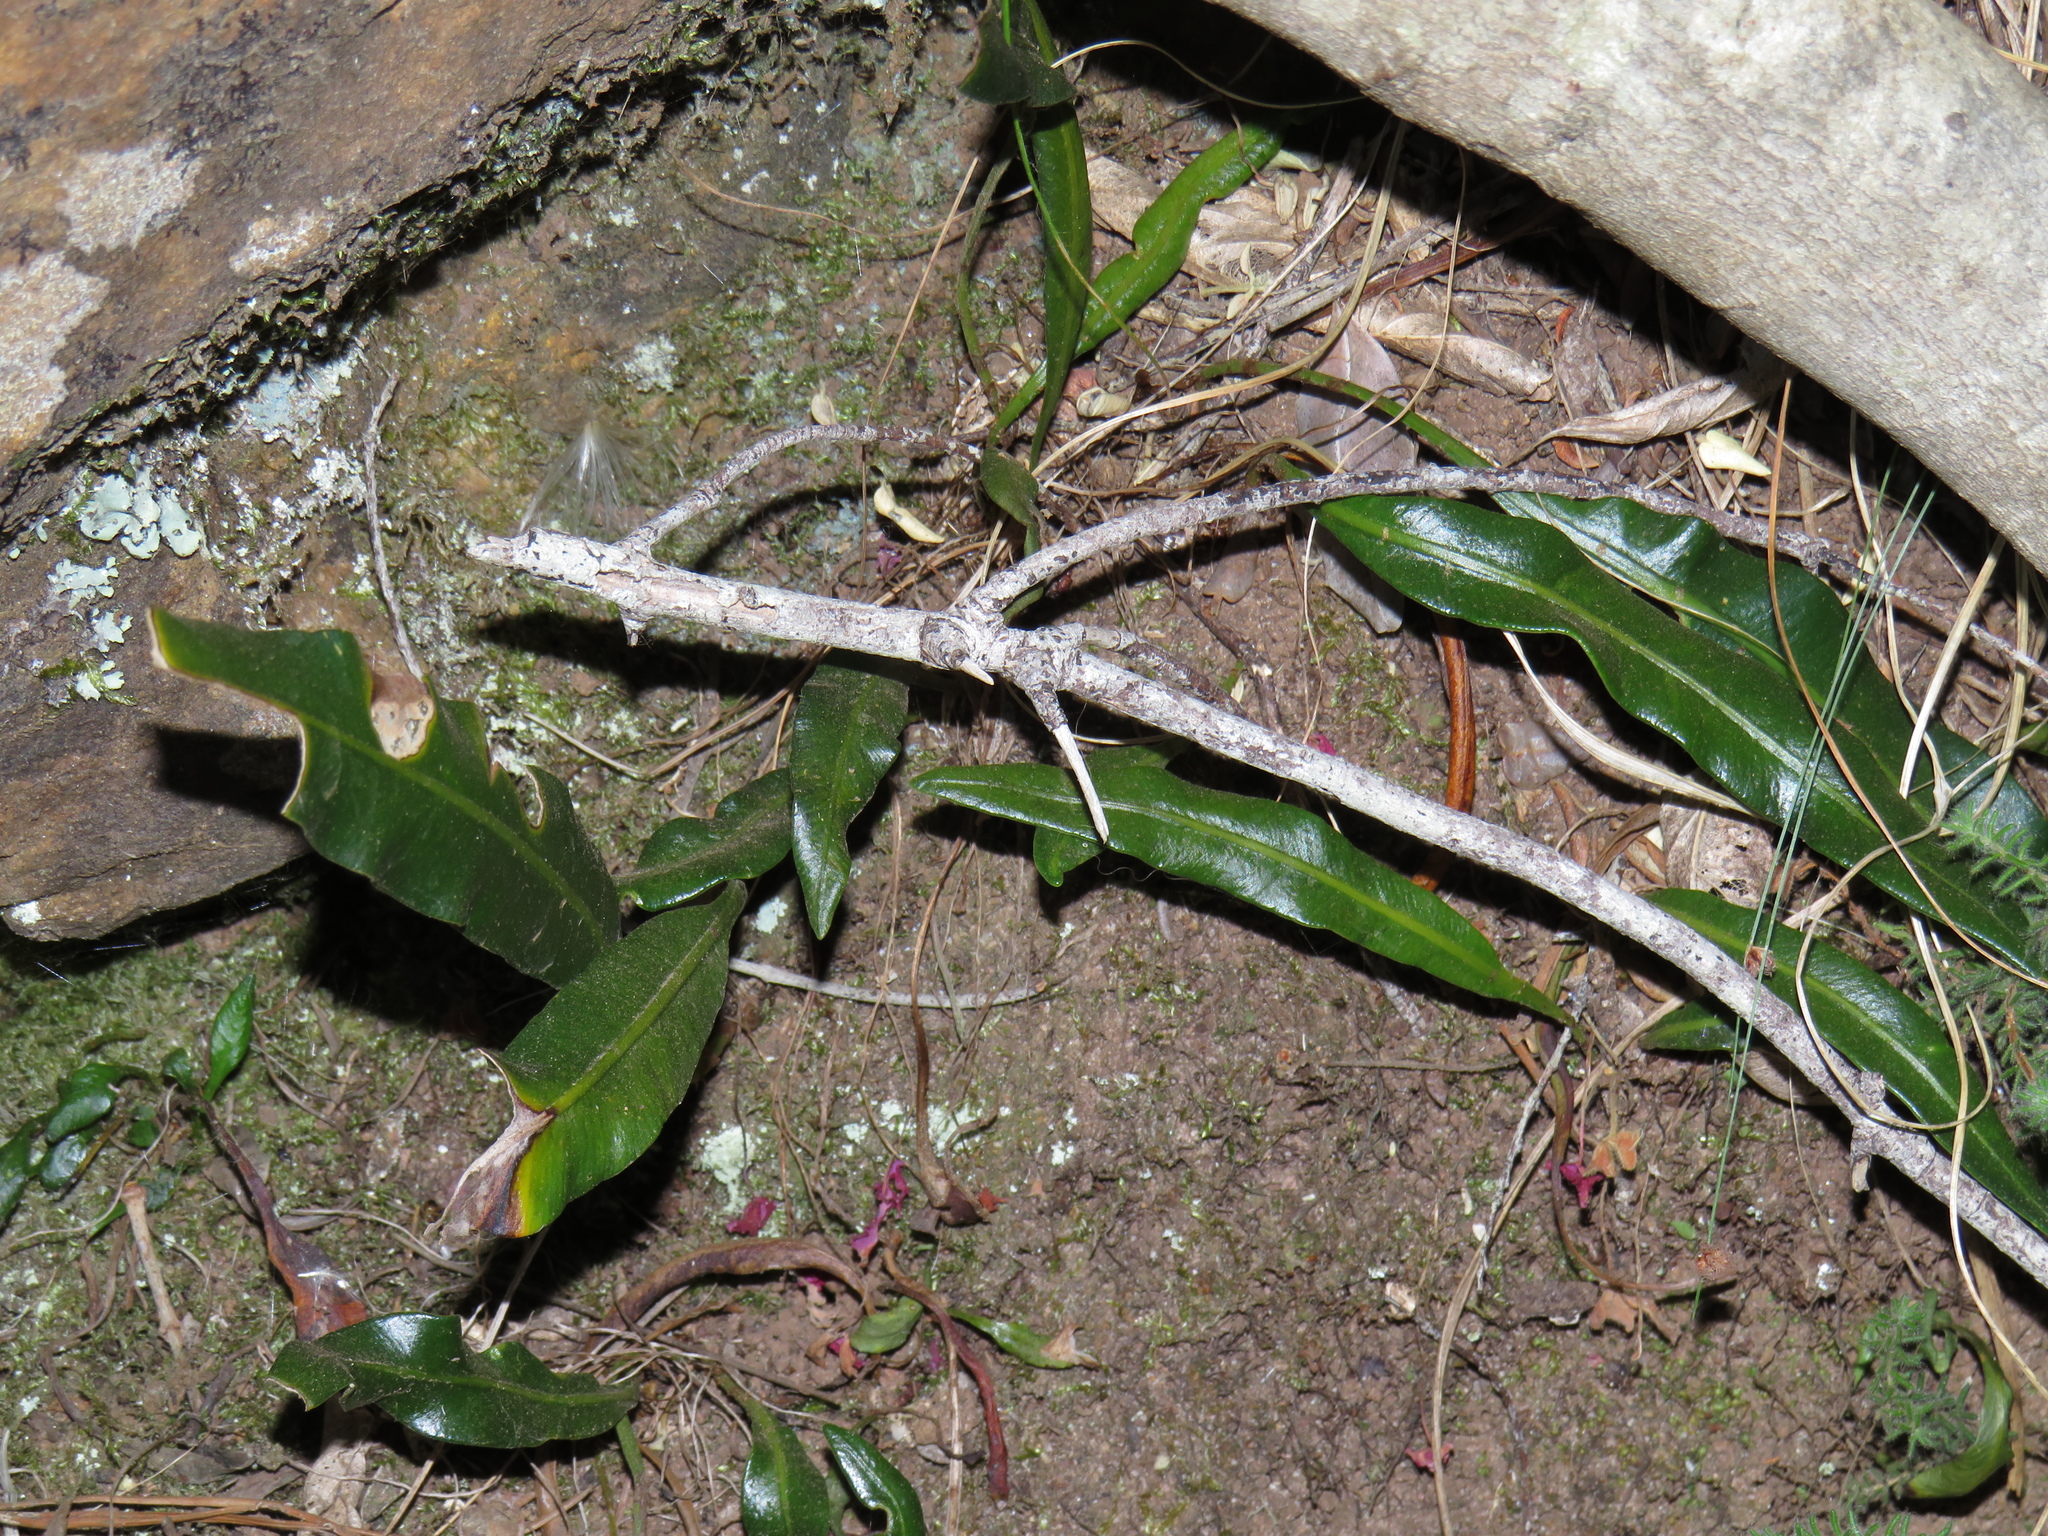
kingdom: Plantae
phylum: Tracheophyta
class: Polypodiopsida
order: Polypodiales
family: Dryopteridaceae
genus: Elaphoglossum
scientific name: Elaphoglossum acrostichoides
